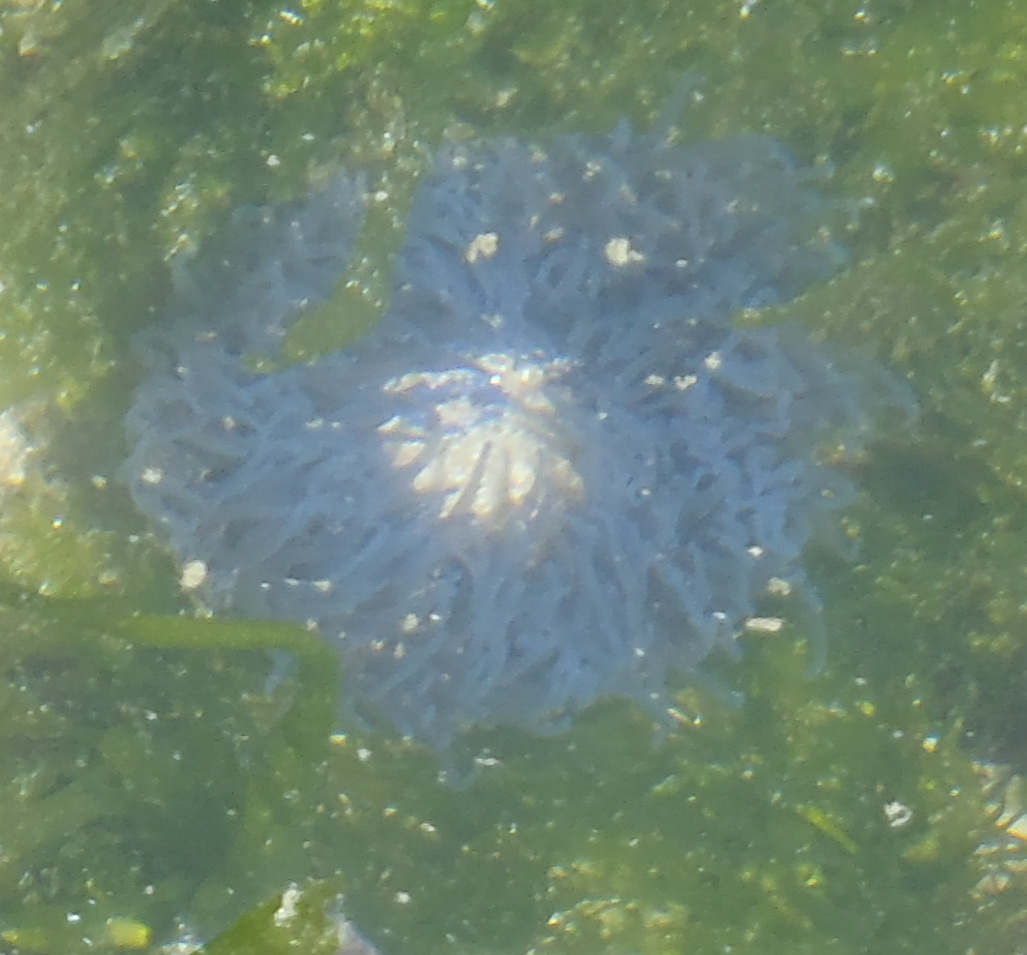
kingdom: Animalia
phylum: Cnidaria
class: Anthozoa
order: Actiniaria
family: Actiniidae
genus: Bunodactis
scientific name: Bunodactis reynaudi
